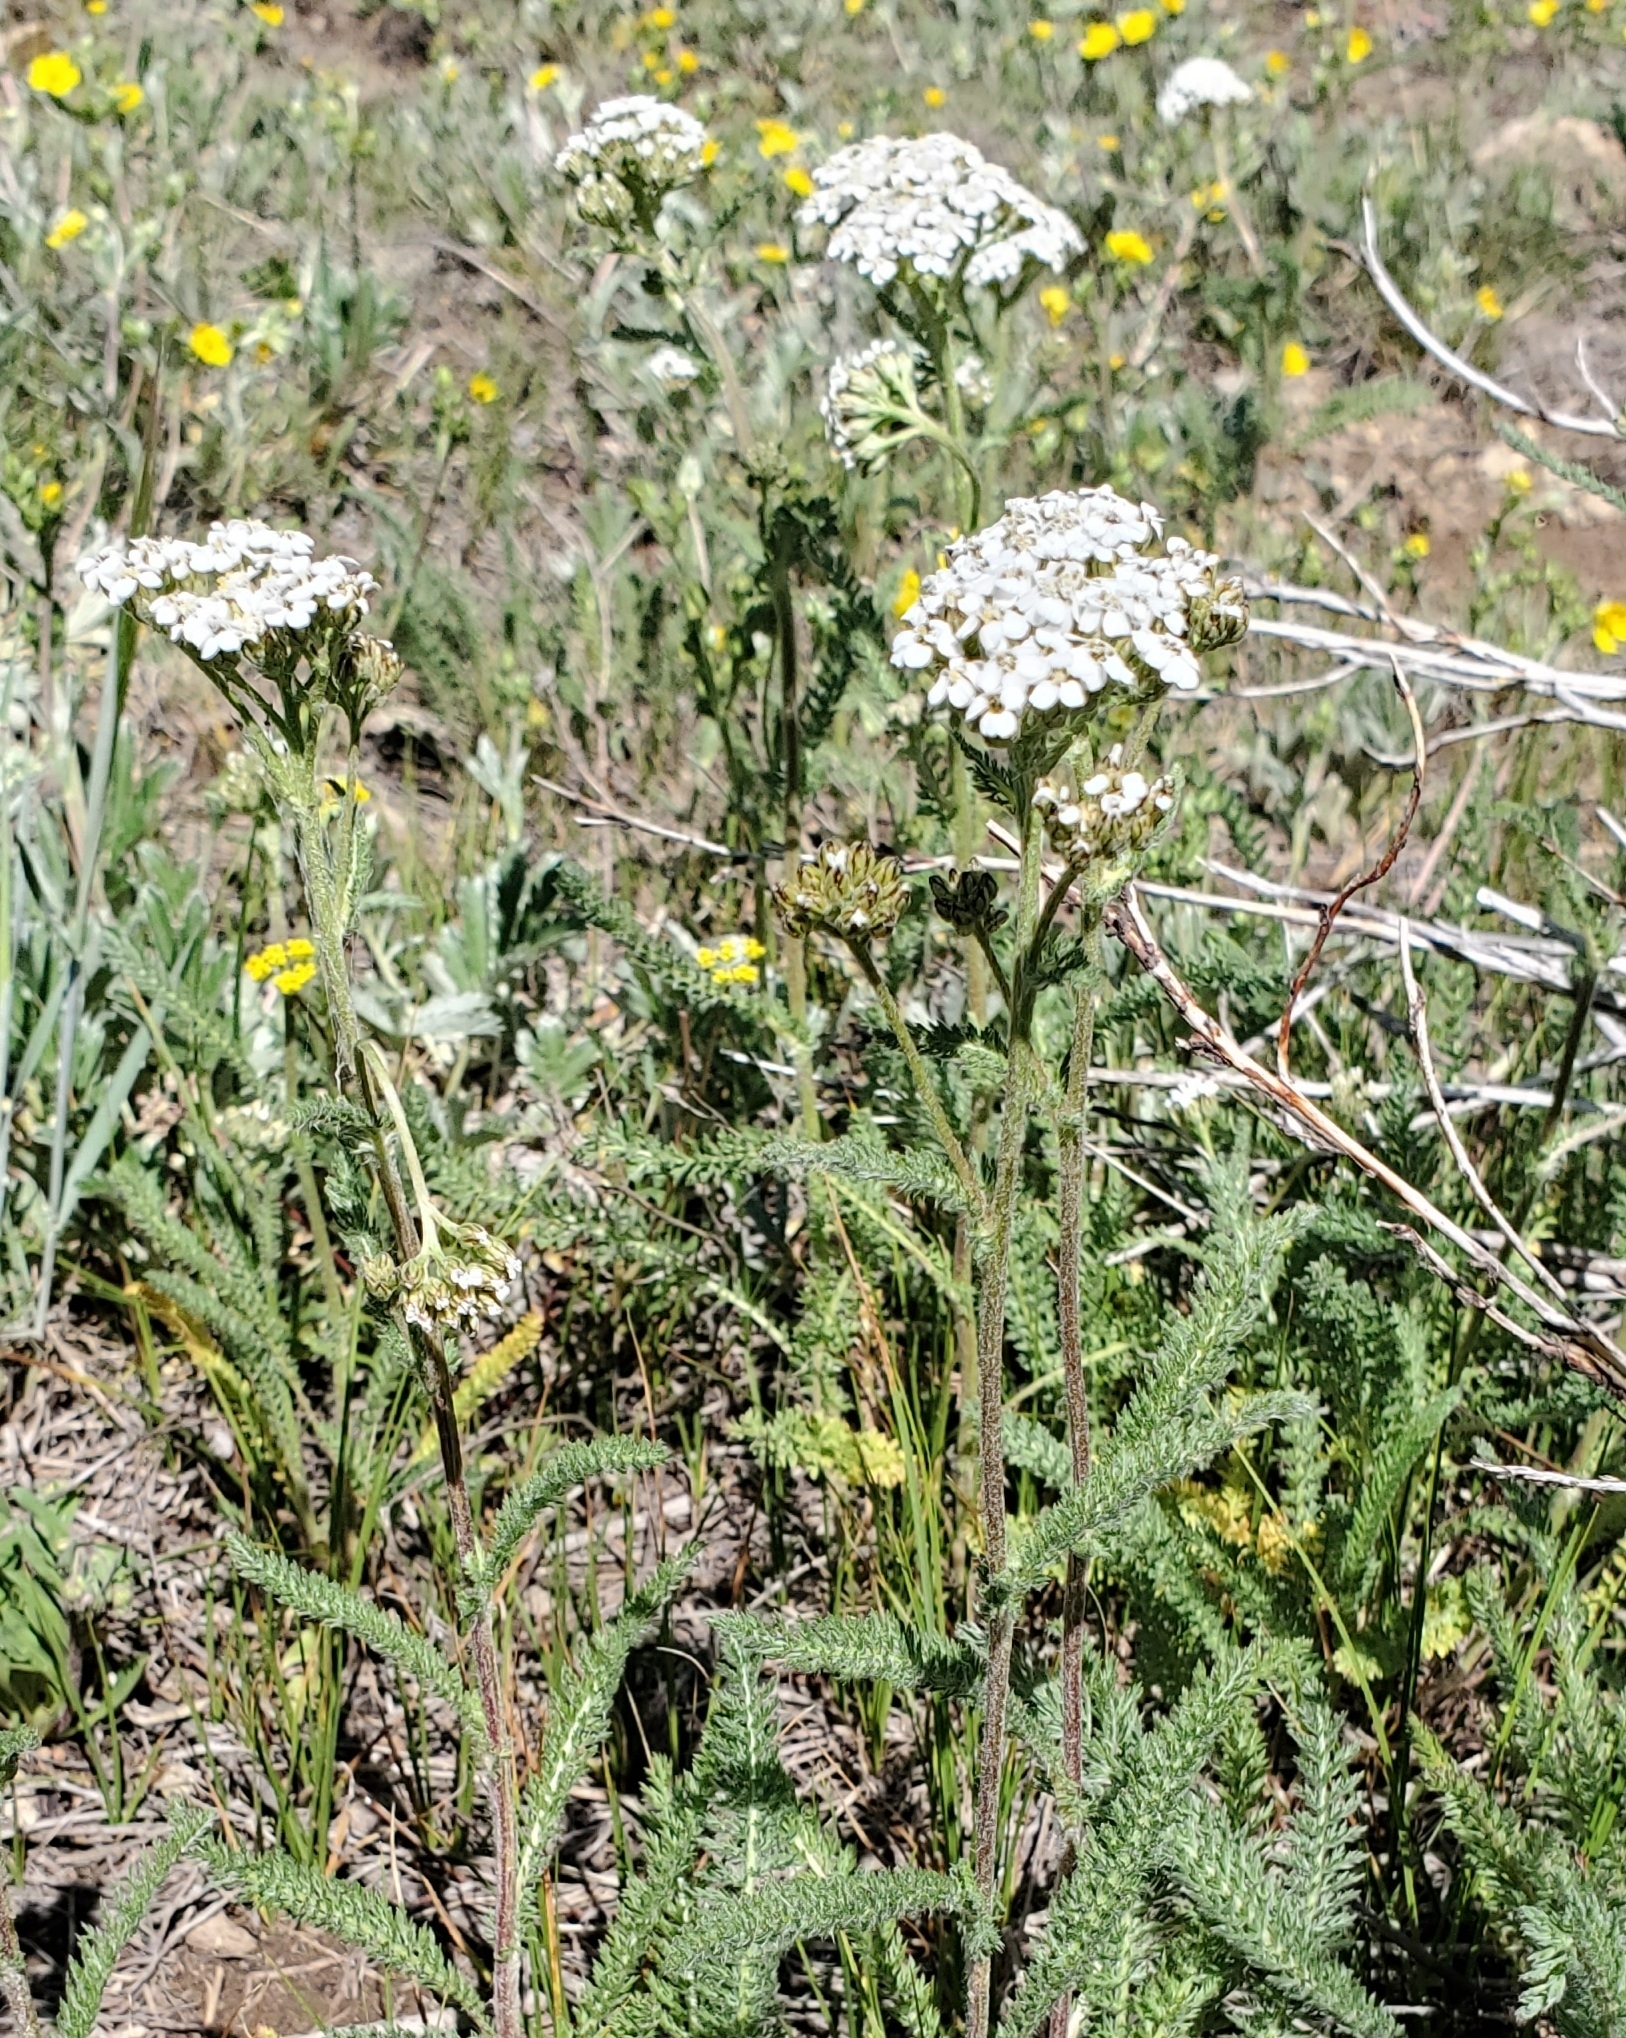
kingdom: Plantae
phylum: Tracheophyta
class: Magnoliopsida
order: Asterales
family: Asteraceae
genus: Achillea
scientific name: Achillea millefolium
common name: Yarrow
